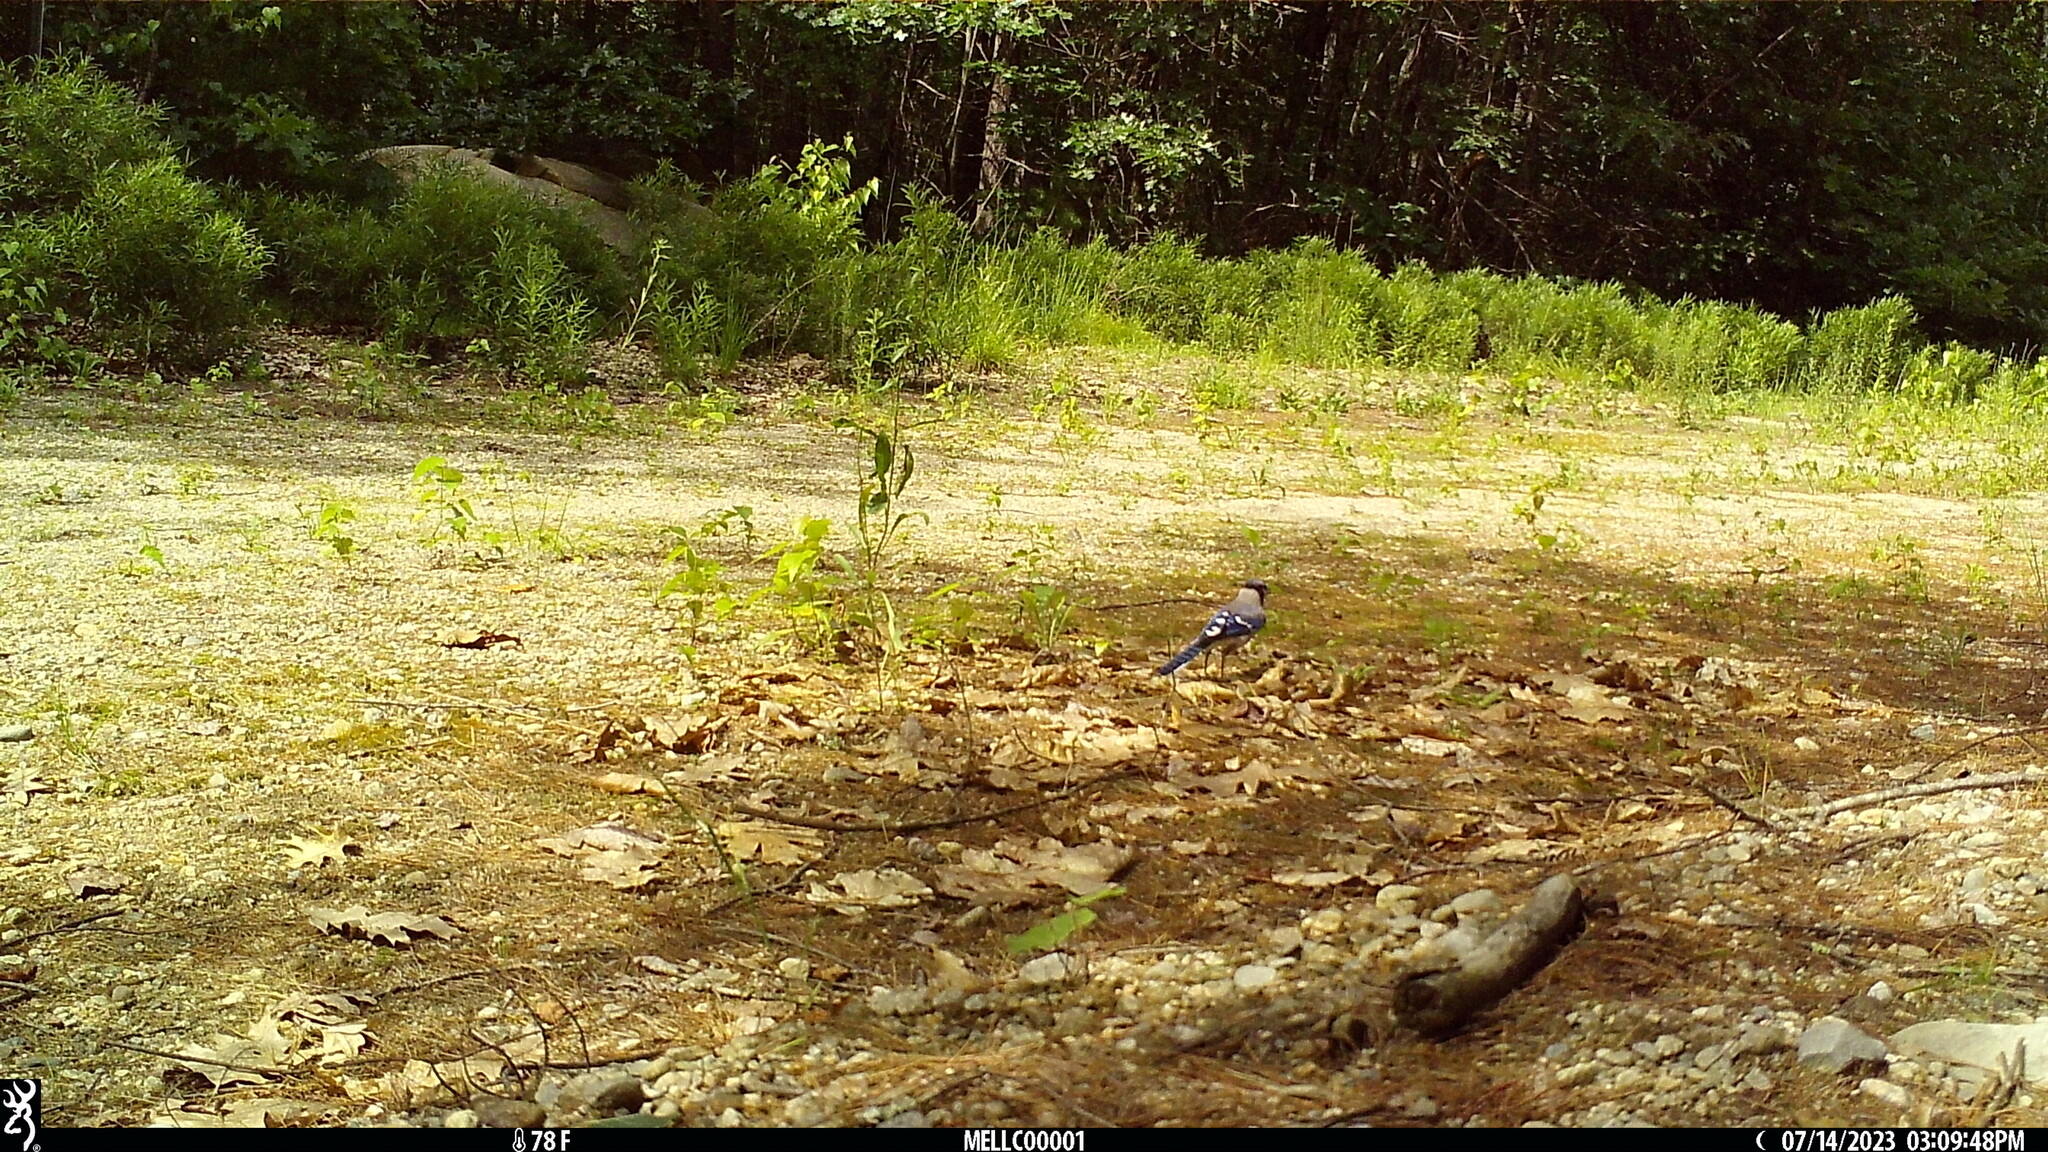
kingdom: Animalia
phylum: Chordata
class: Aves
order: Passeriformes
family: Corvidae
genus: Cyanocitta
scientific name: Cyanocitta cristata
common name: Blue jay
